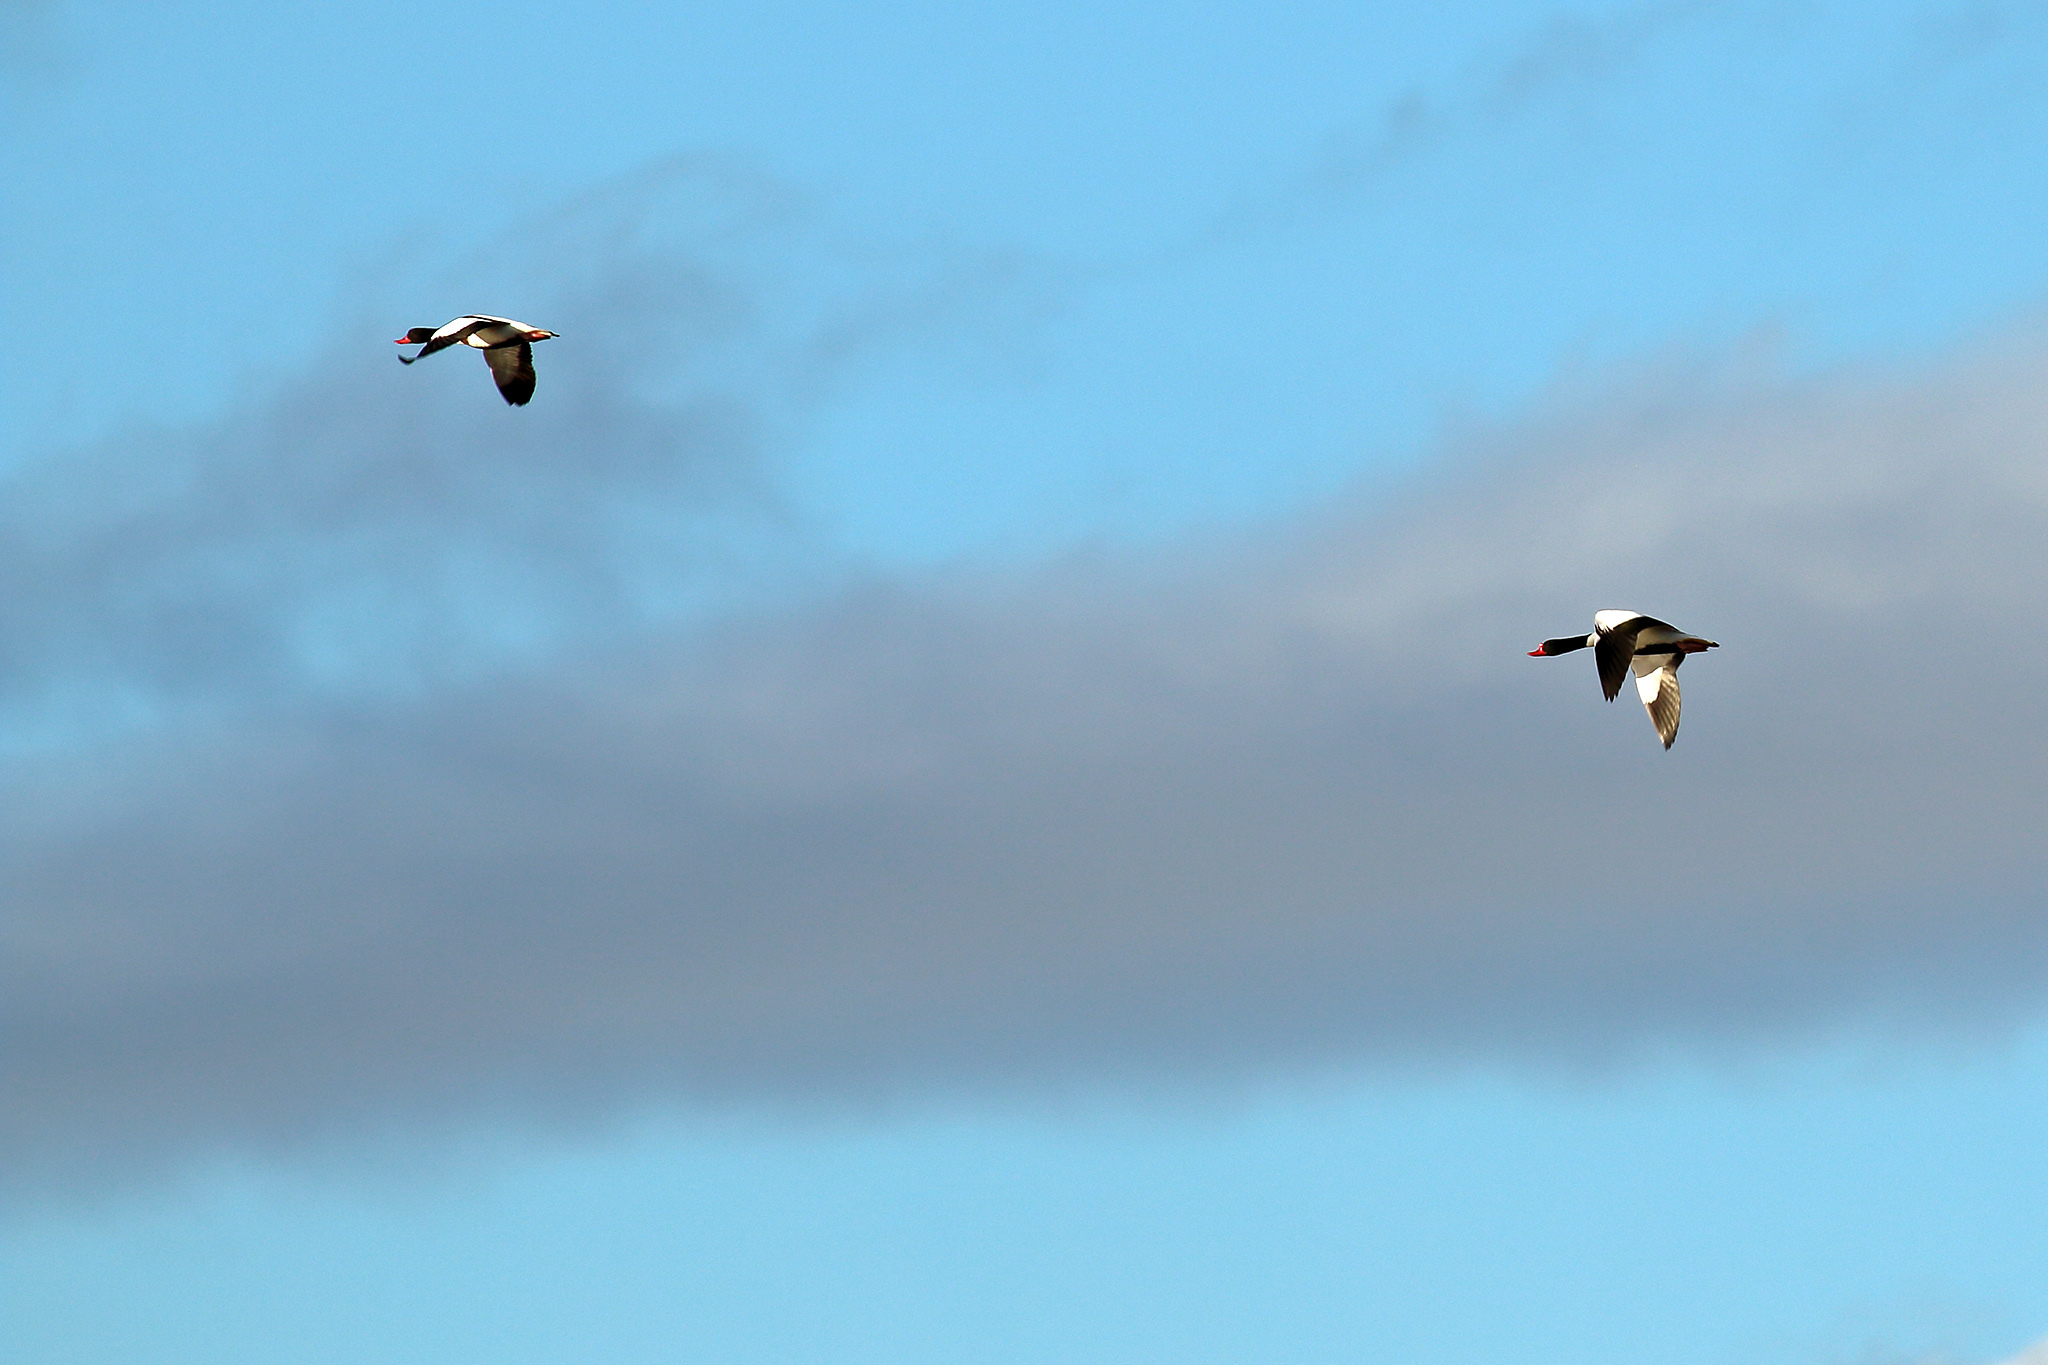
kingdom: Animalia
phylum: Chordata
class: Aves
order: Anseriformes
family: Anatidae
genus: Tadorna
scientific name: Tadorna tadorna
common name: Common shelduck
